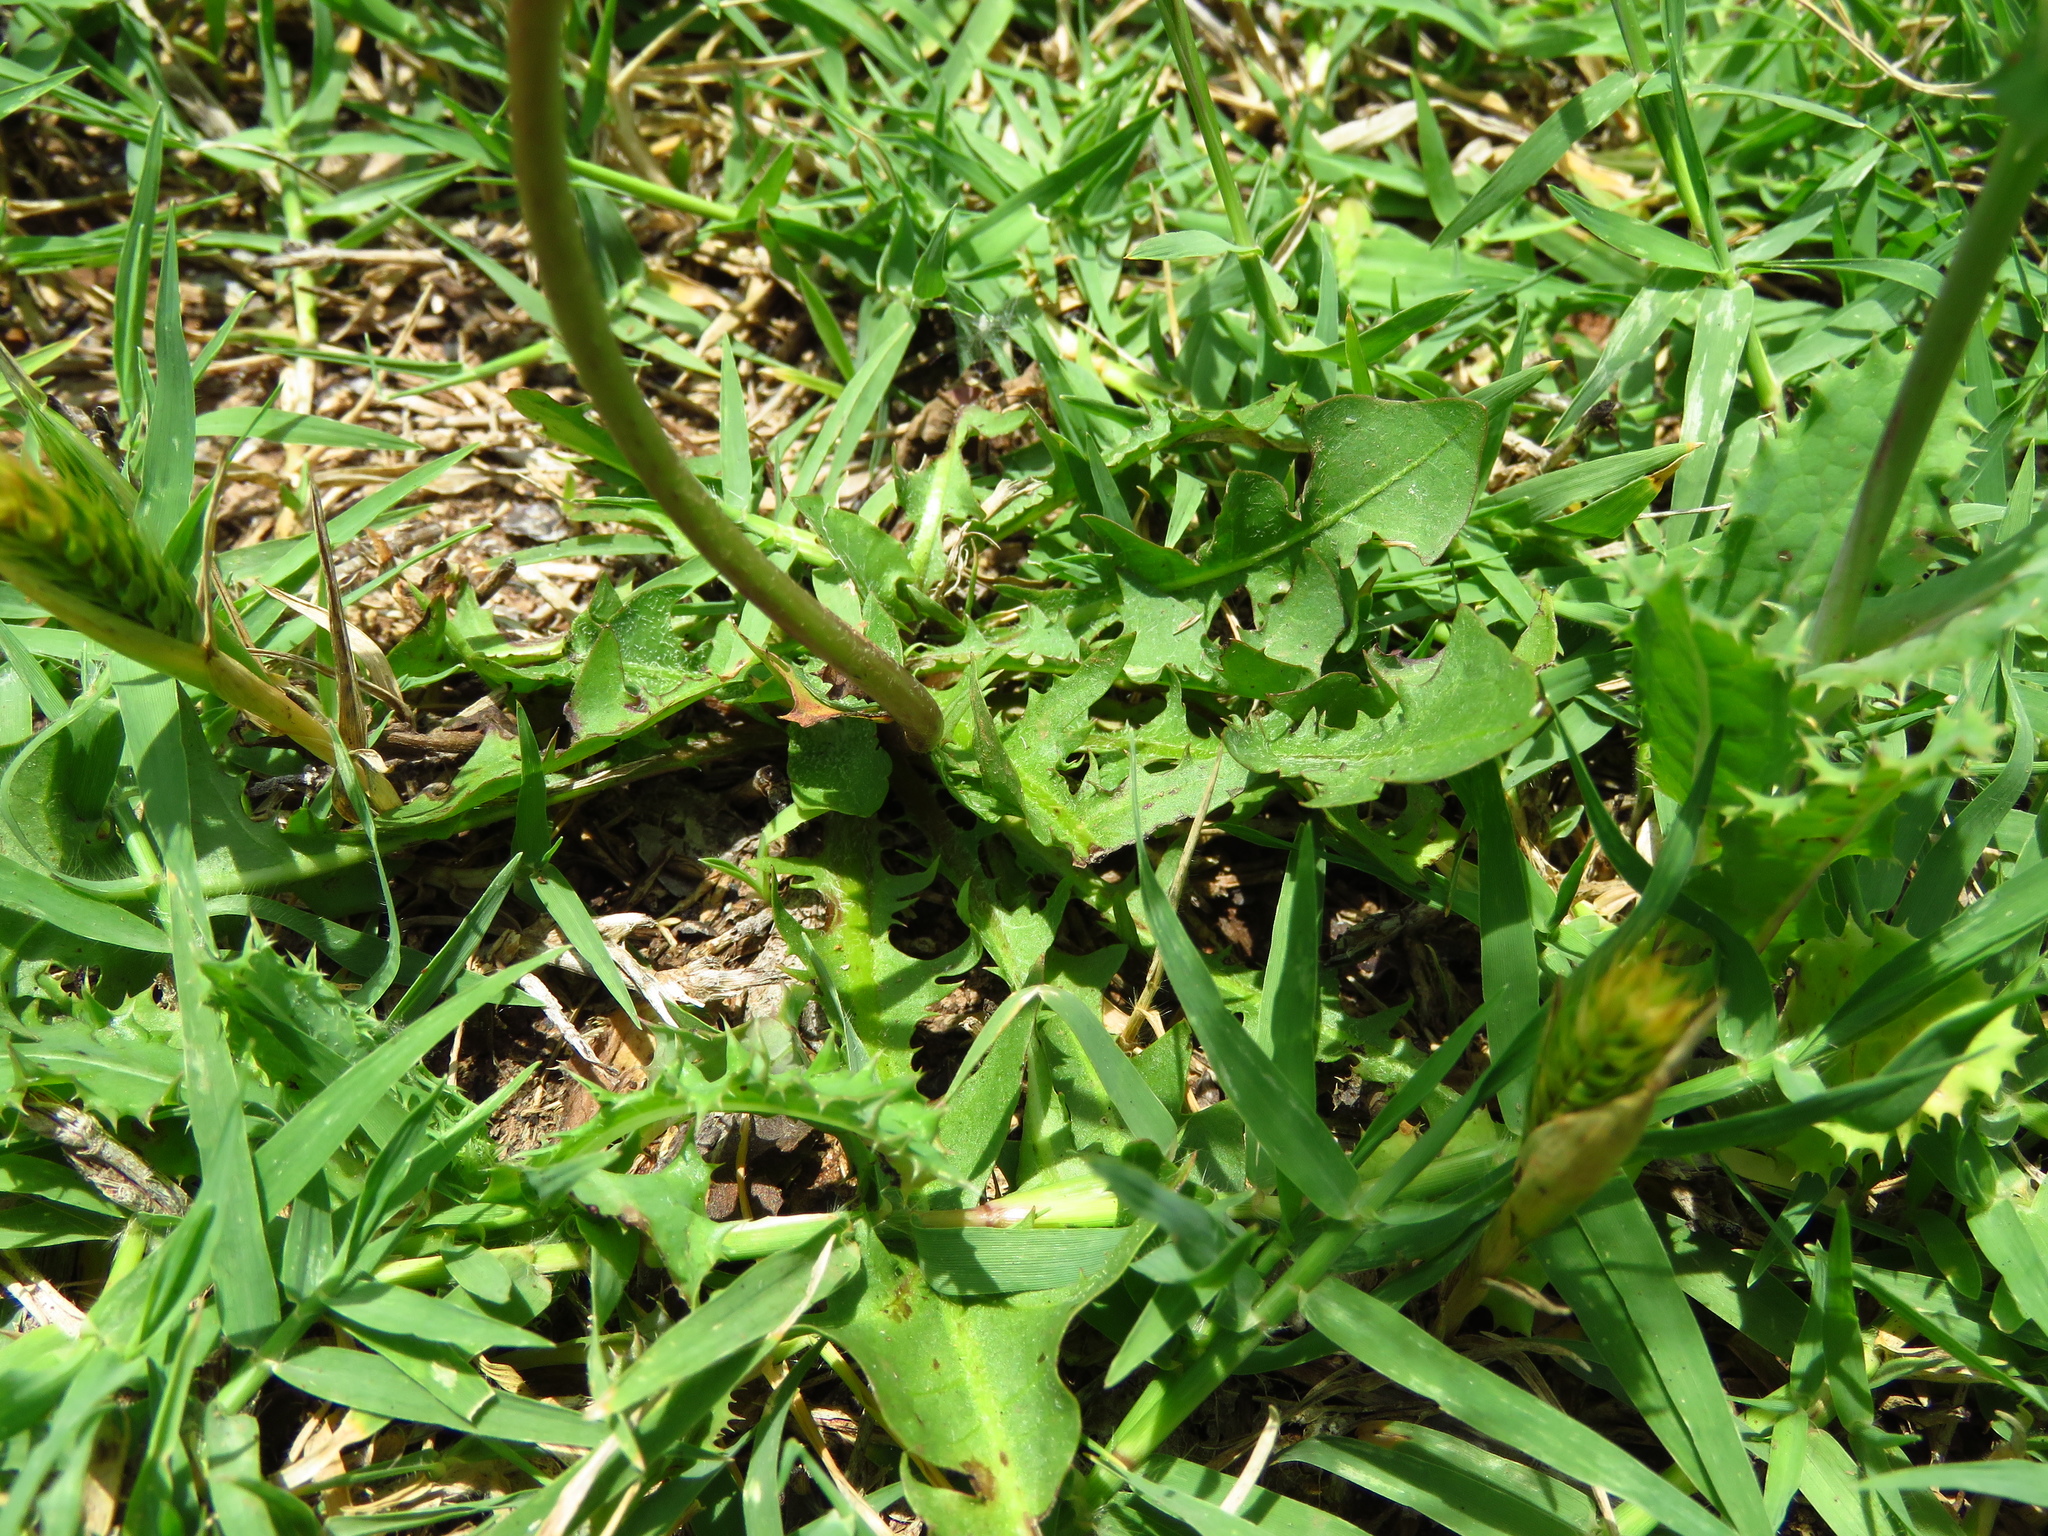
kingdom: Plantae
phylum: Tracheophyta
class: Magnoliopsida
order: Asterales
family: Asteraceae
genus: Taraxacum
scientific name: Taraxacum officinale
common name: Common dandelion
